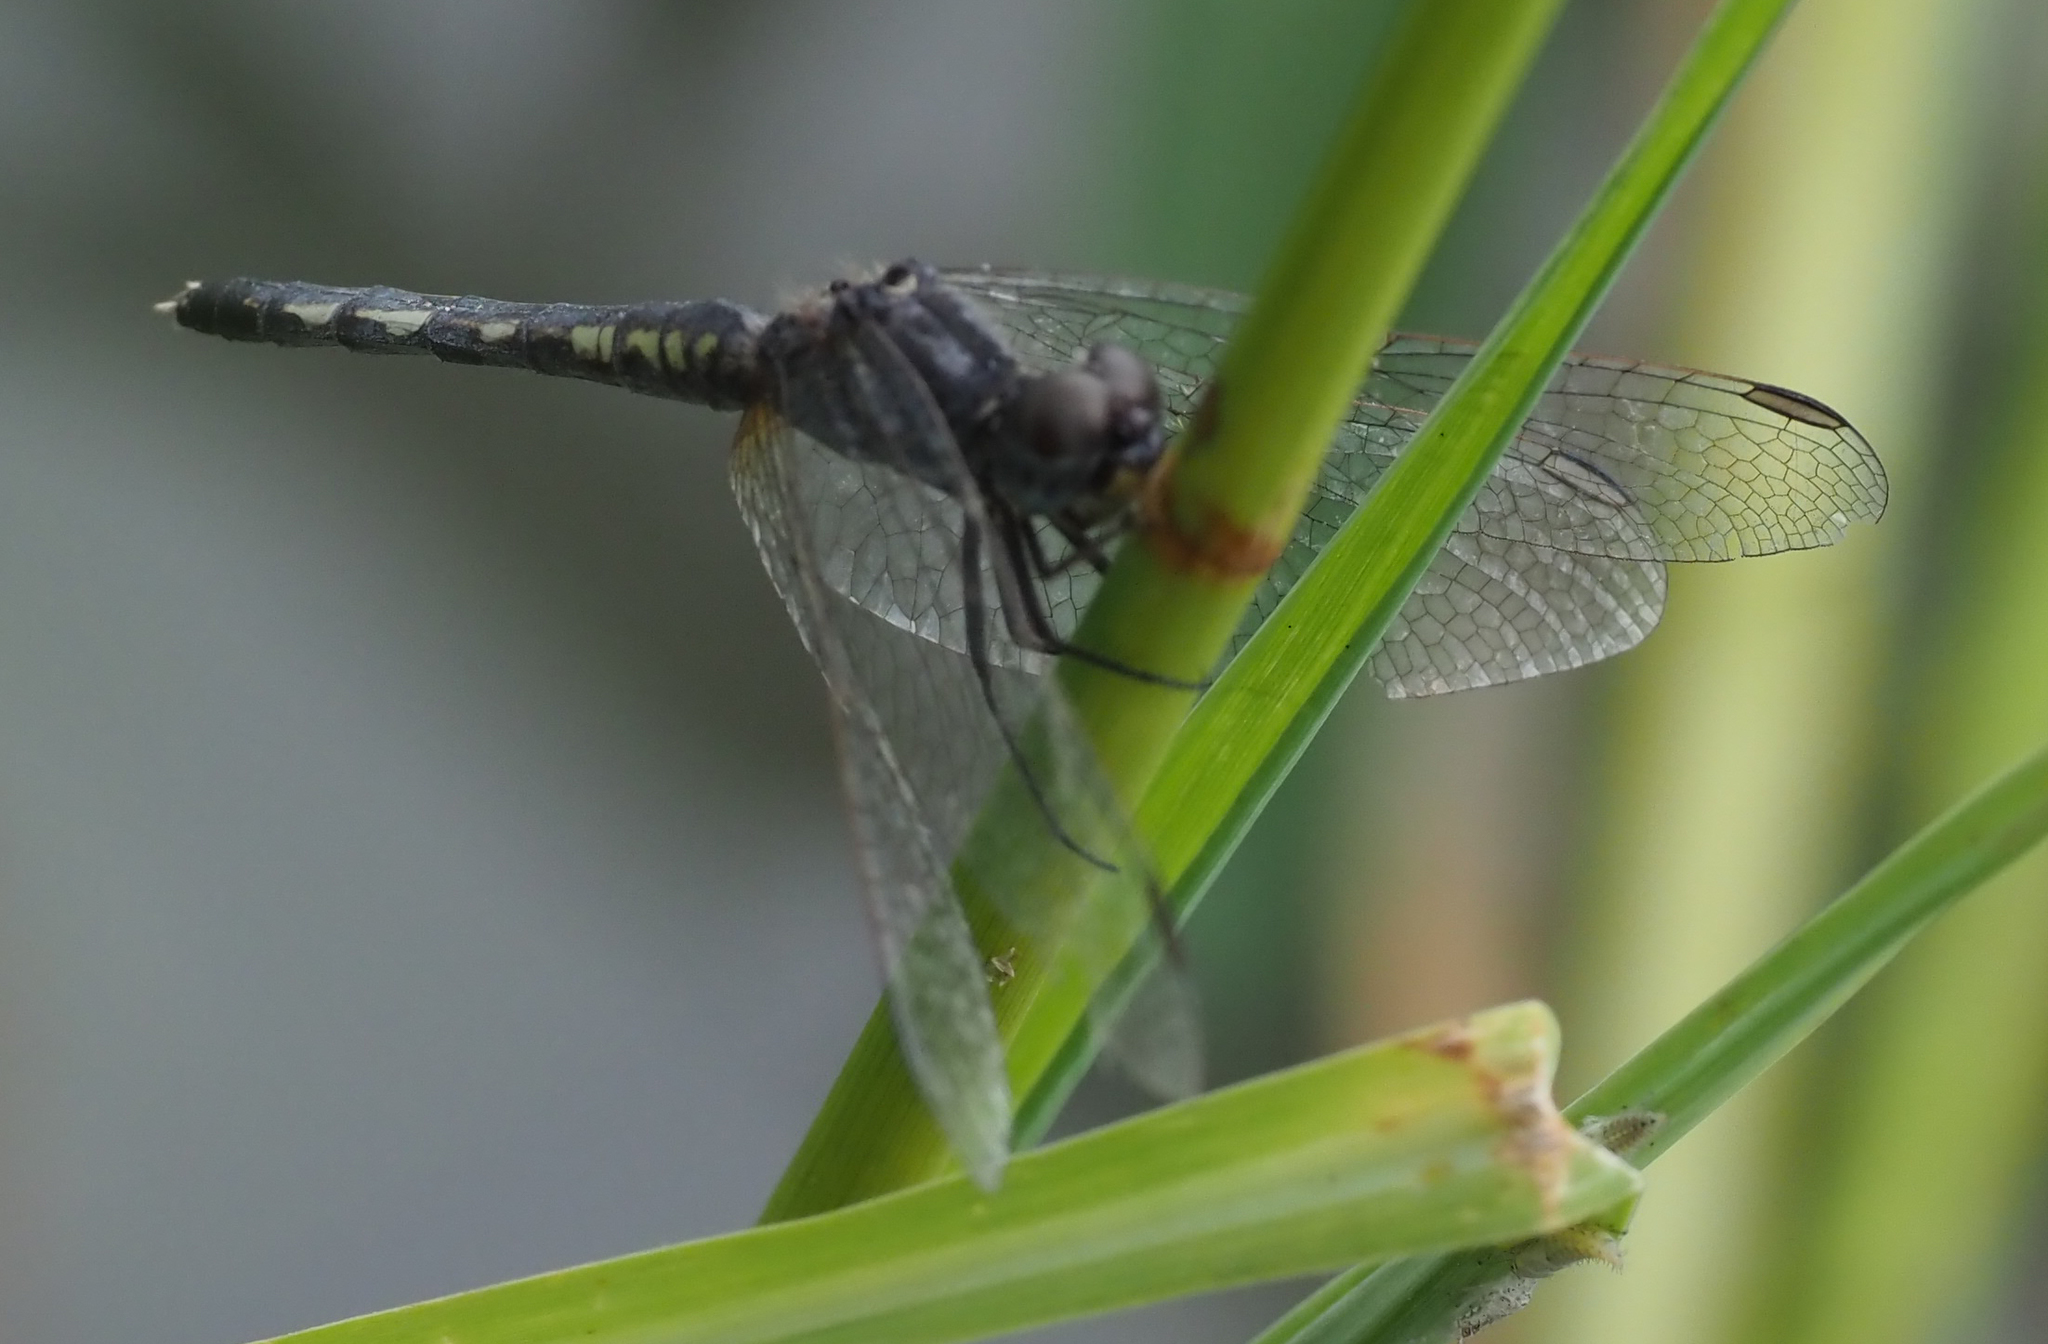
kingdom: Animalia
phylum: Arthropoda
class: Insecta
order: Odonata
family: Libellulidae
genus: Diplacodes
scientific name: Diplacodes lefebvrii
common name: Black percher
